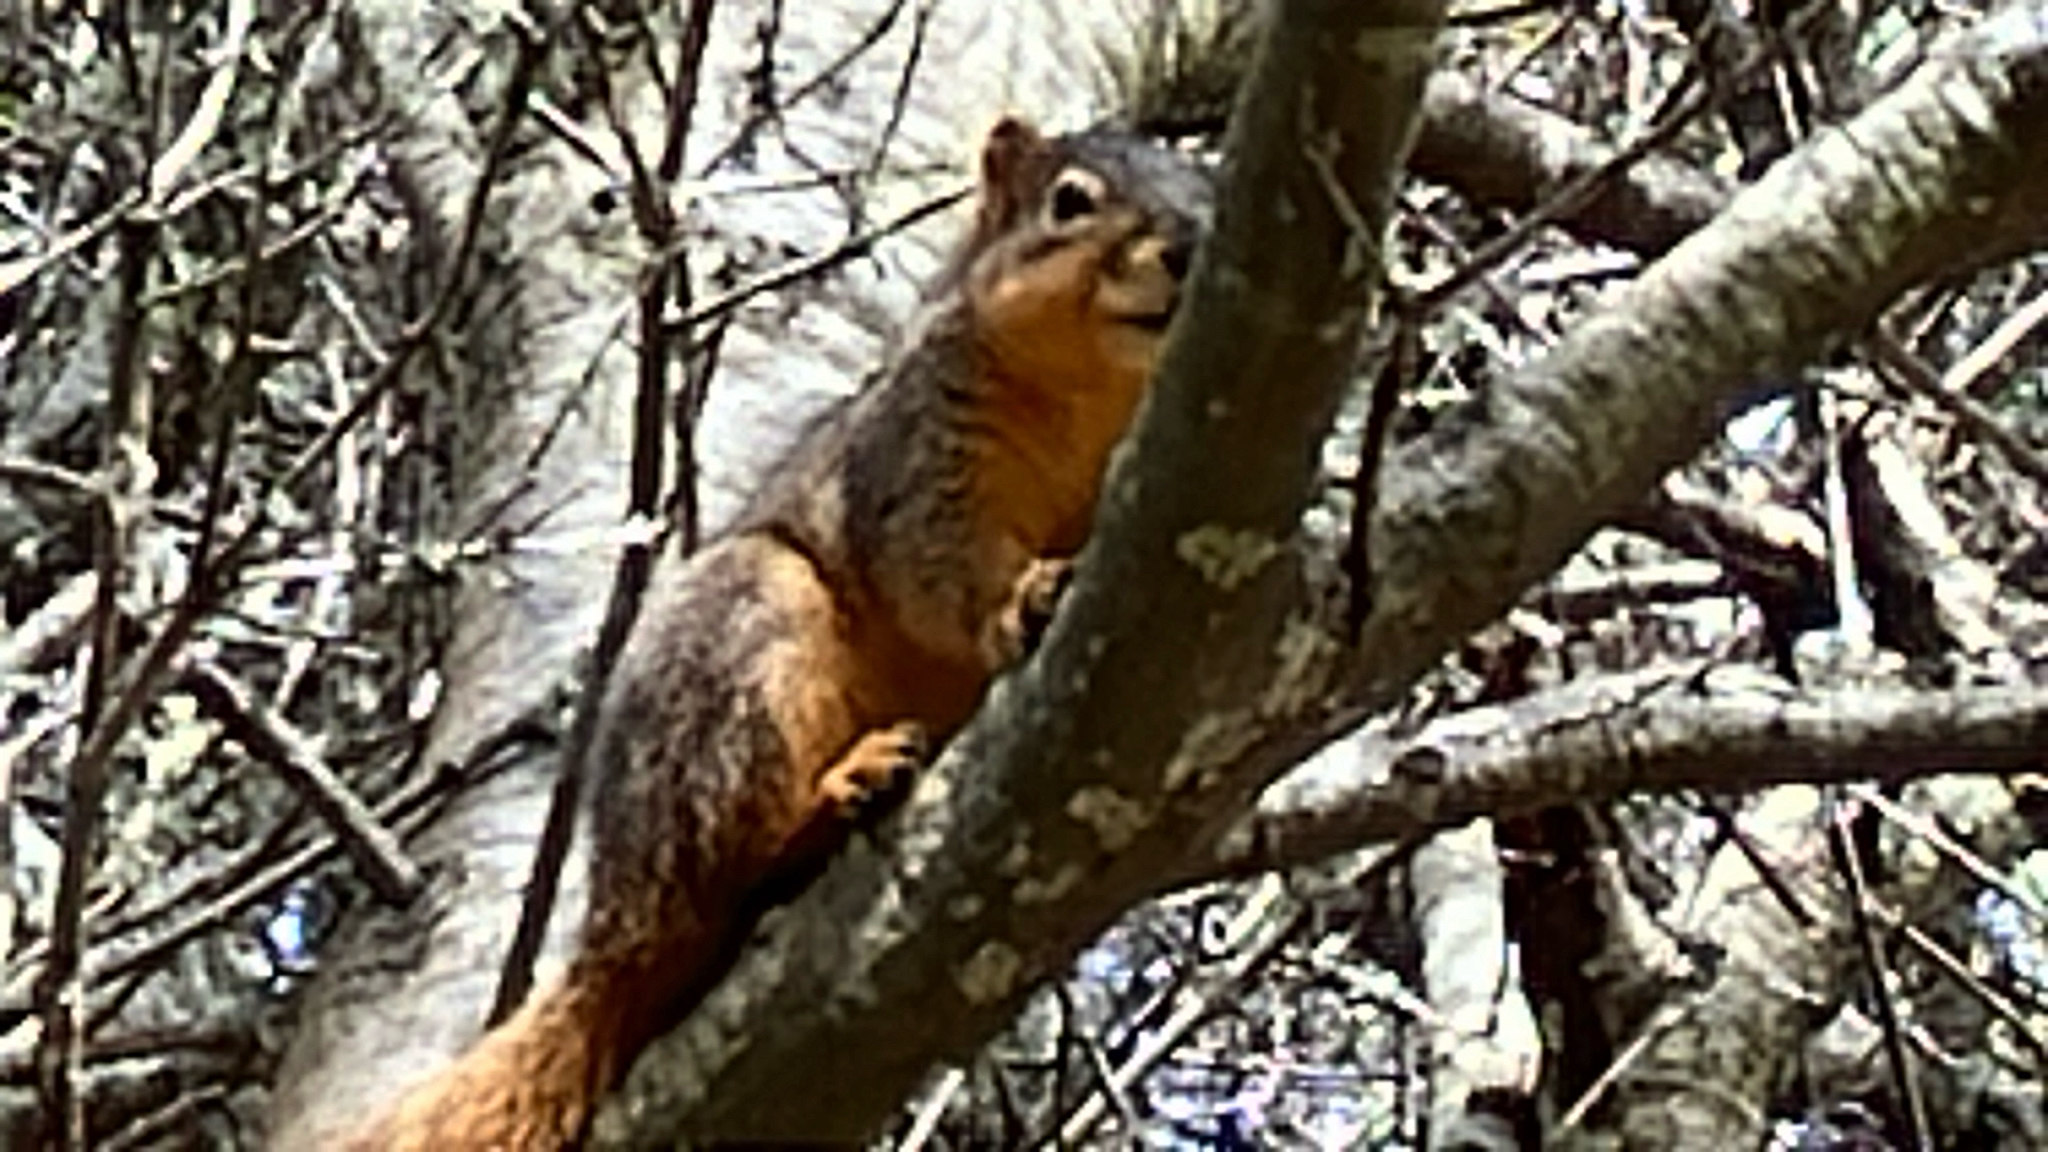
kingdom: Animalia
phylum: Chordata
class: Mammalia
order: Rodentia
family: Sciuridae
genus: Sciurus
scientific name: Sciurus niger
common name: Fox squirrel
